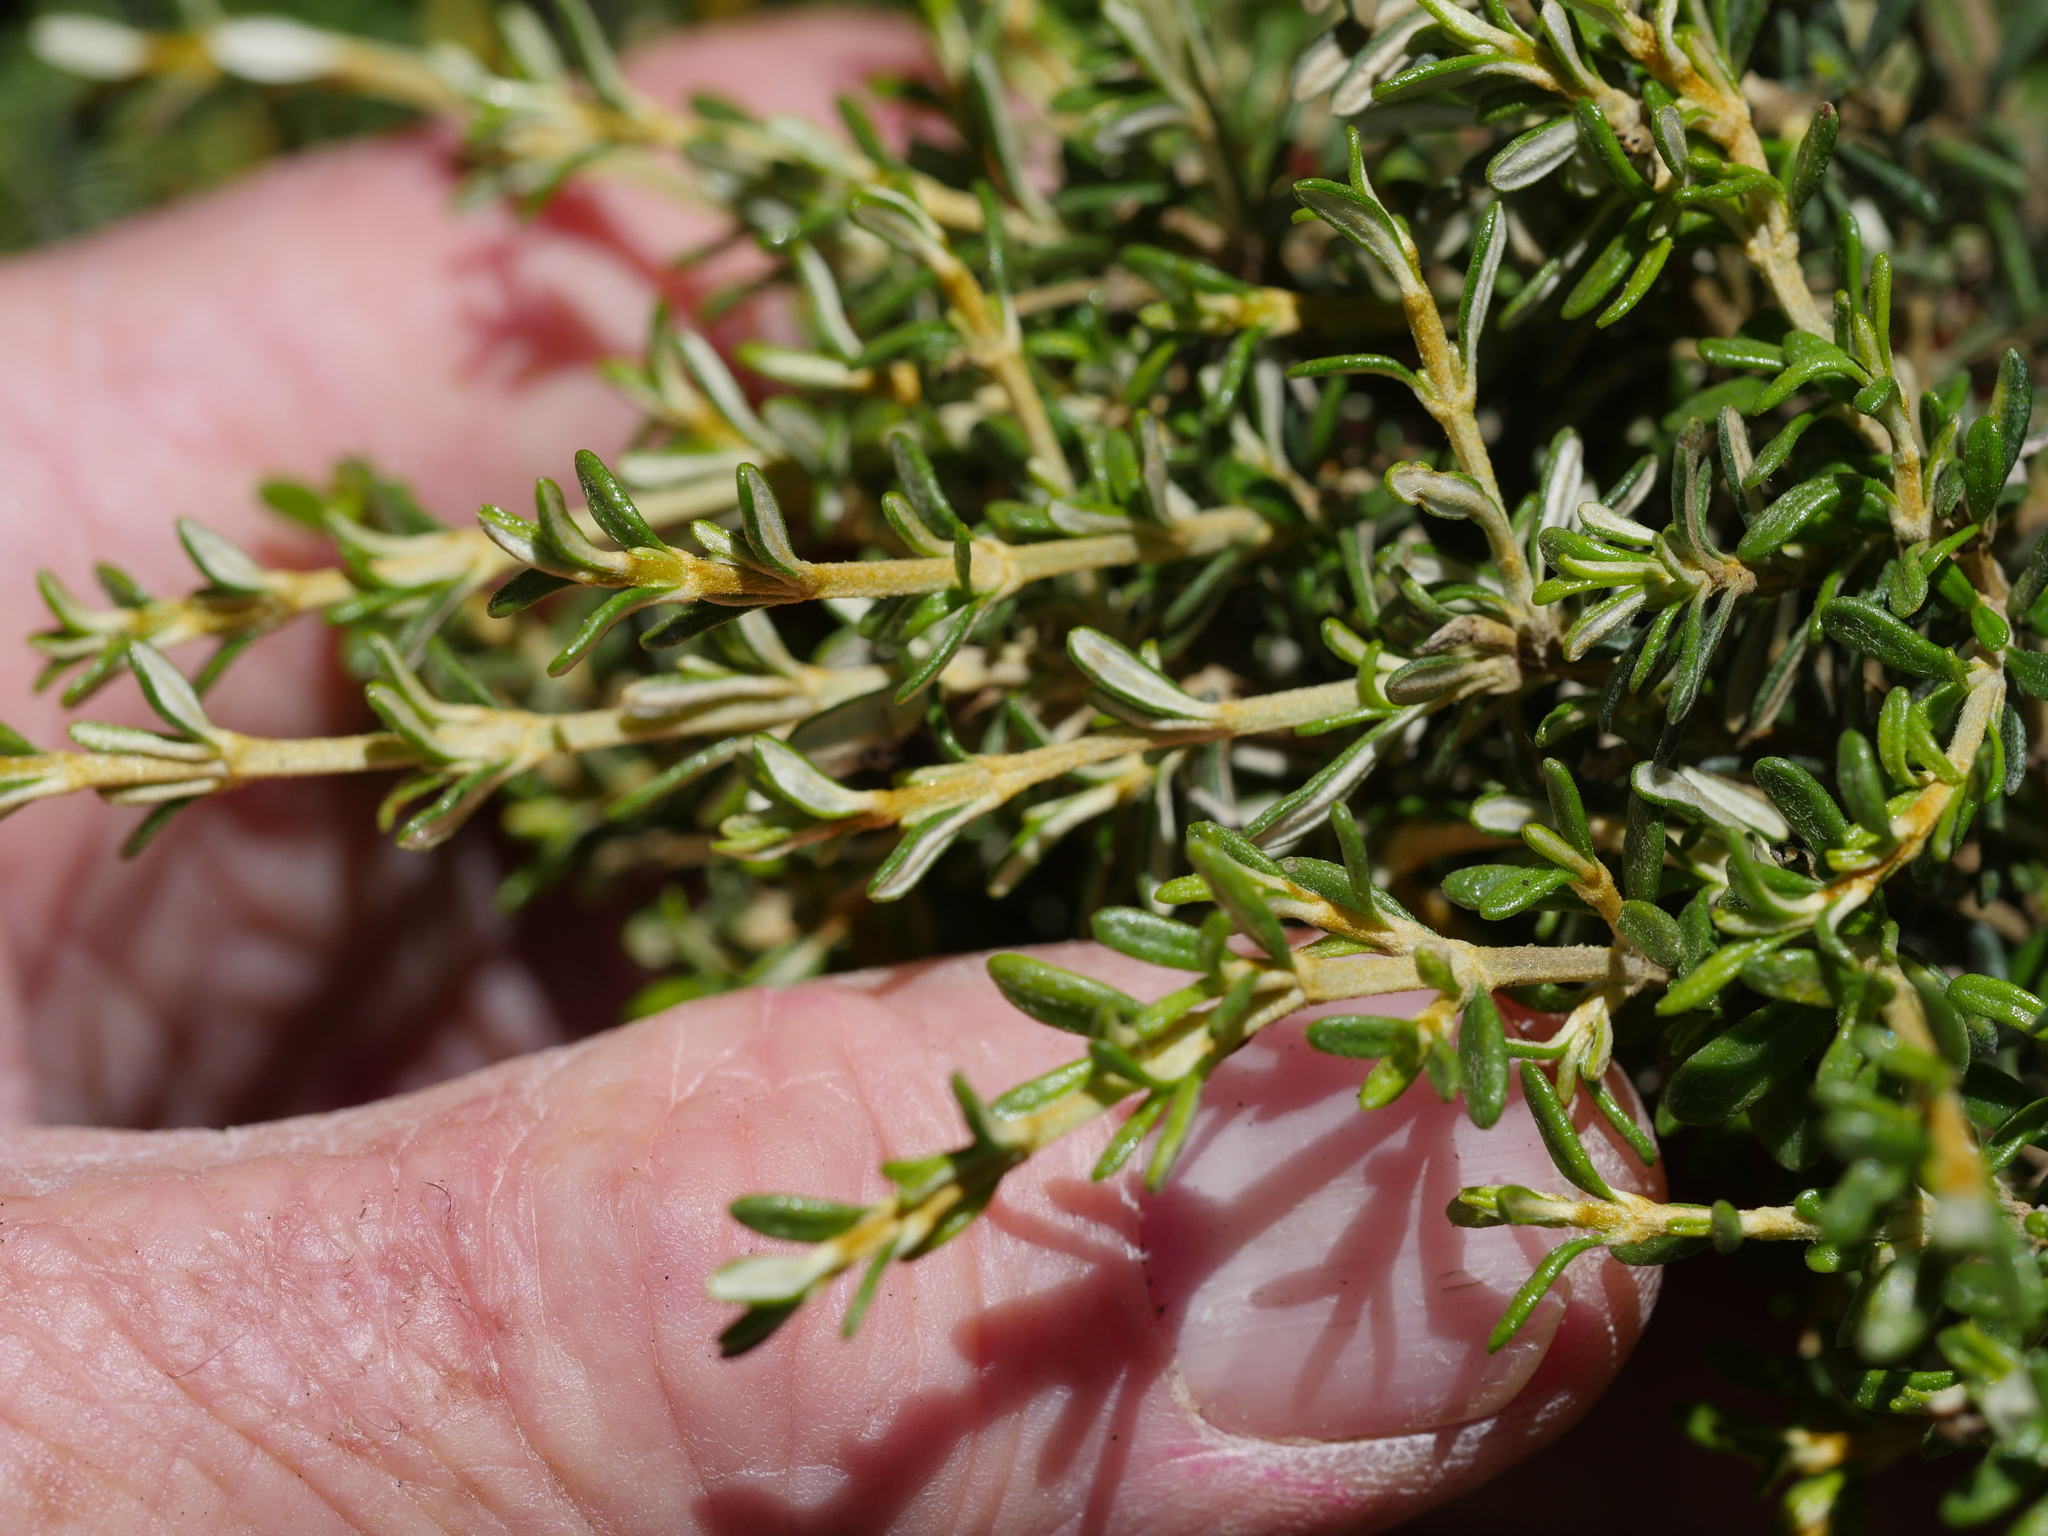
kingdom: Plantae
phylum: Tracheophyta
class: Magnoliopsida
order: Asterales
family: Asteraceae
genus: Olearia
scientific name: Olearia solandri
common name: Coastal daisybush
